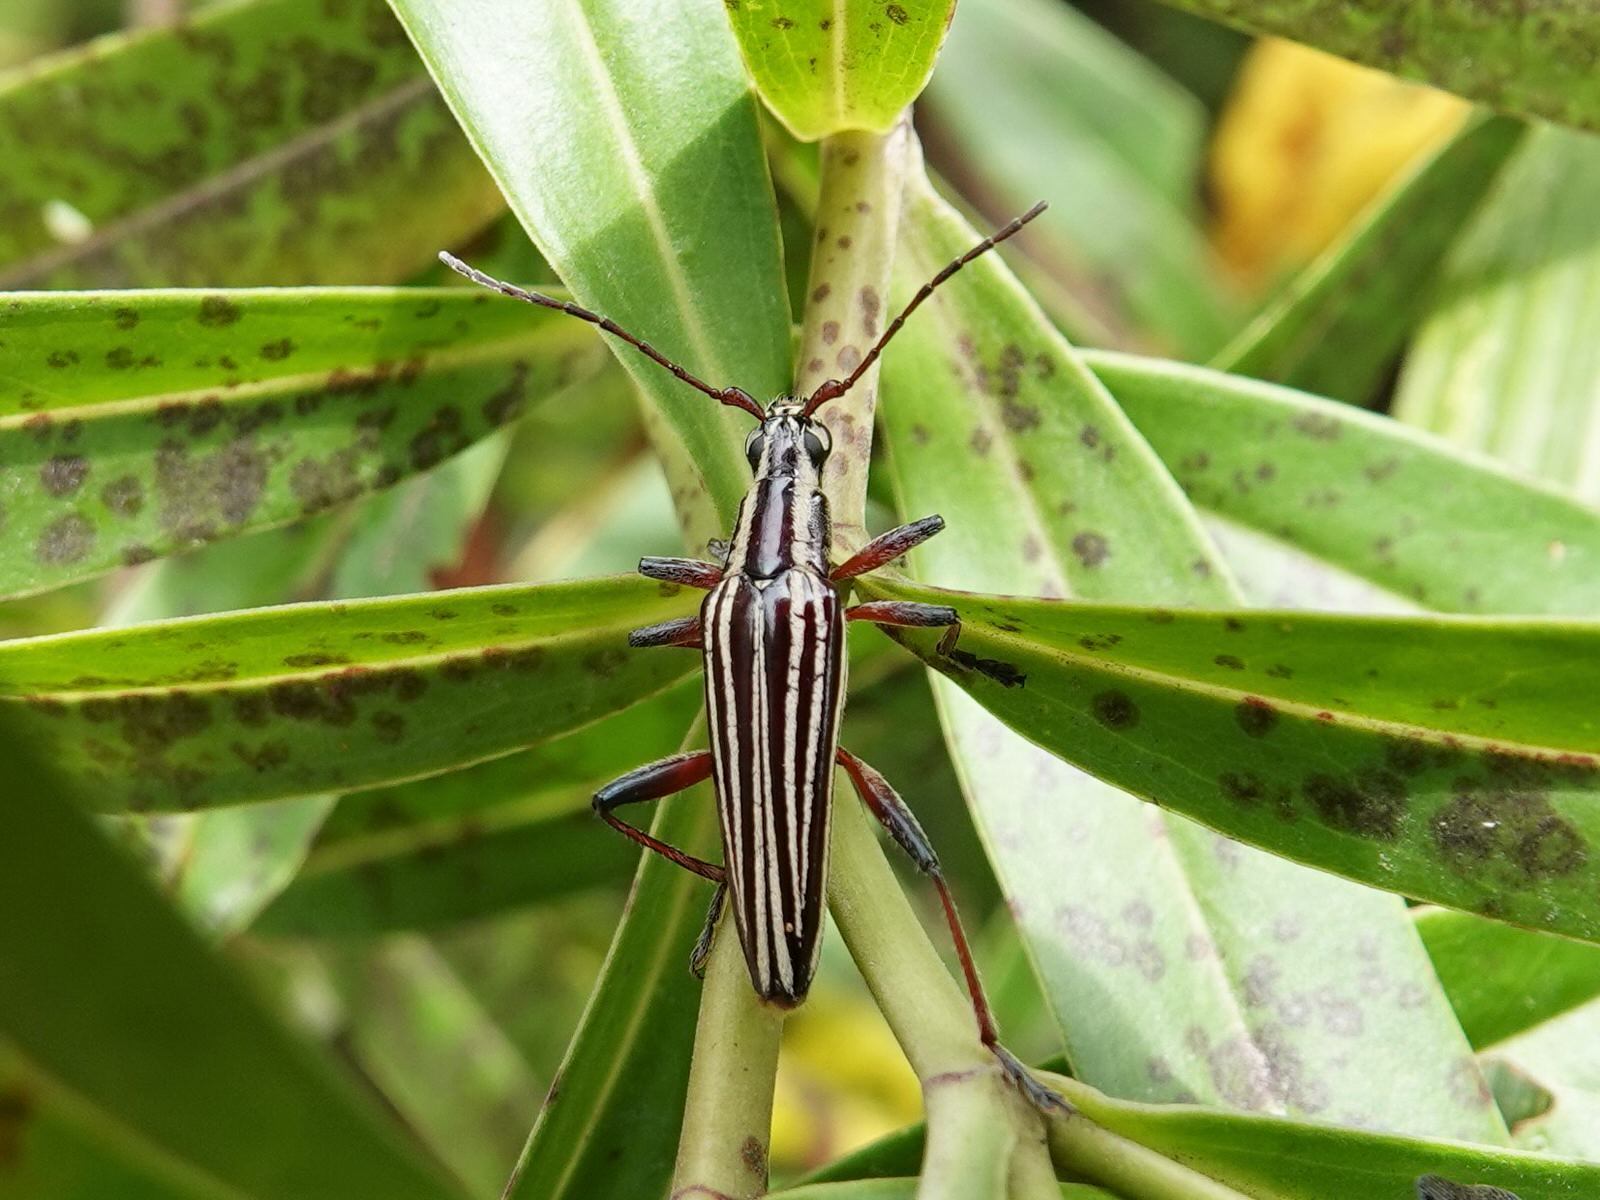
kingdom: Animalia
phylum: Arthropoda
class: Insecta
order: Coleoptera
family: Cerambycidae
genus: Coptomma
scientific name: Coptomma lineatum
